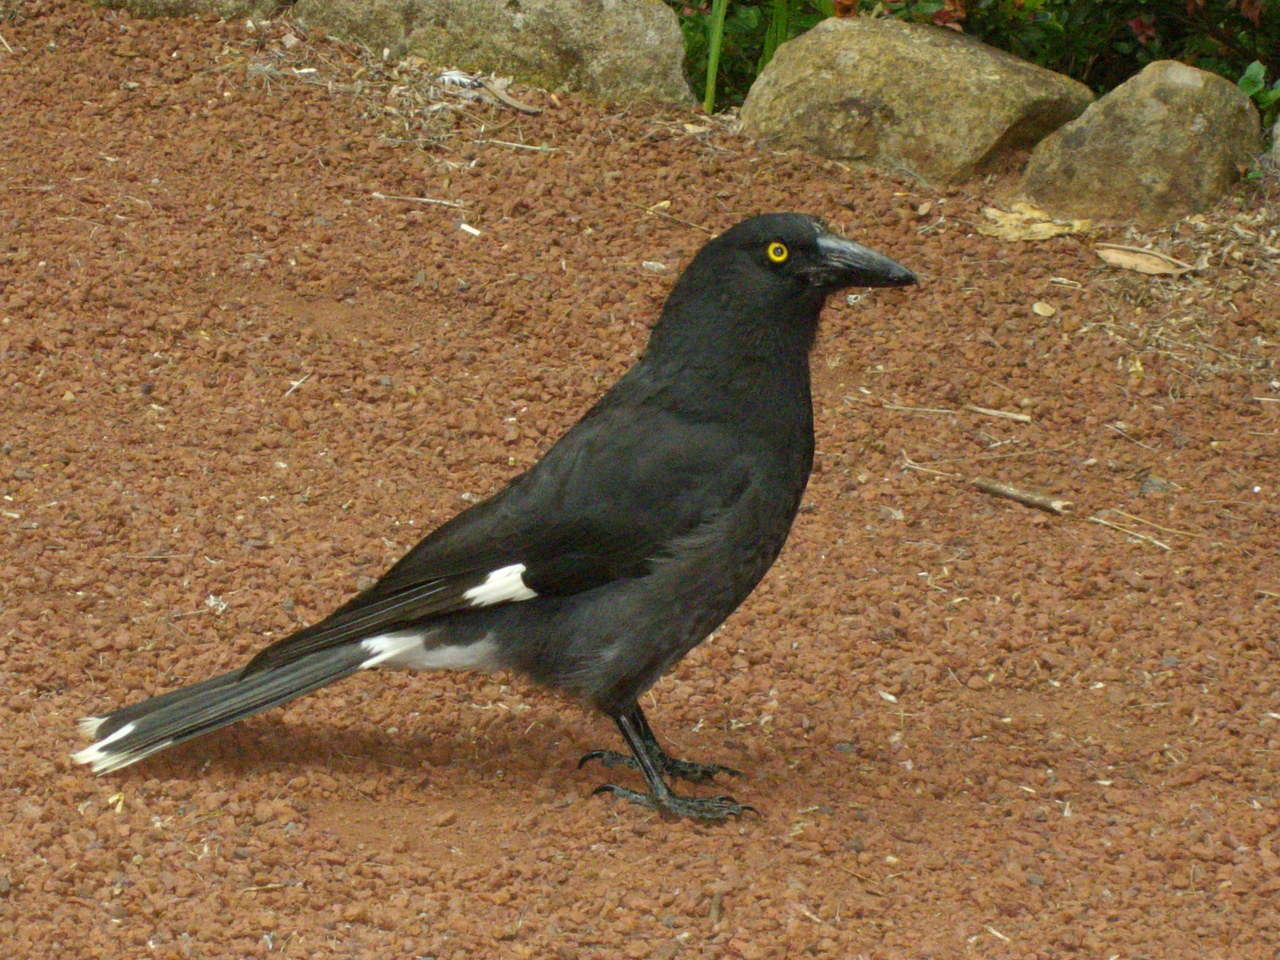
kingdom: Animalia
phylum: Chordata
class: Aves
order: Passeriformes
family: Cracticidae
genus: Strepera
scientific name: Strepera graculina
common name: Pied currawong
